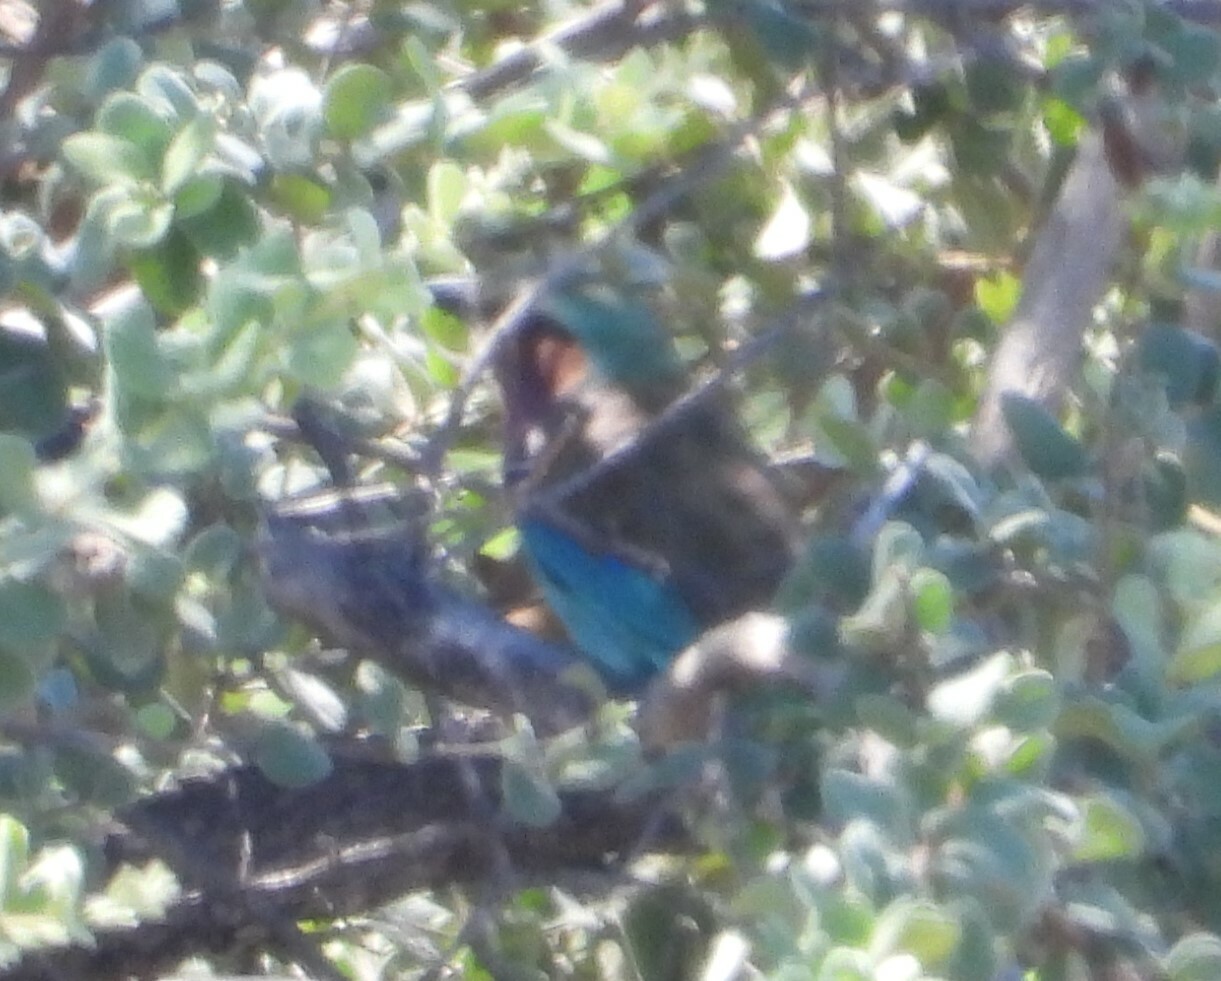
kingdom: Animalia
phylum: Chordata
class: Aves
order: Coraciiformes
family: Coraciidae
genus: Coracias
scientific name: Coracias caudatus
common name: Lilac-breasted roller
